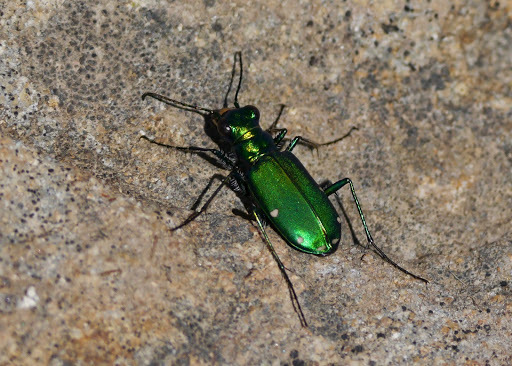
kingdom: Animalia
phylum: Arthropoda
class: Insecta
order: Coleoptera
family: Carabidae
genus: Cicindela
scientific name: Cicindela sexguttata
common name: Six-spotted tiger beetle
